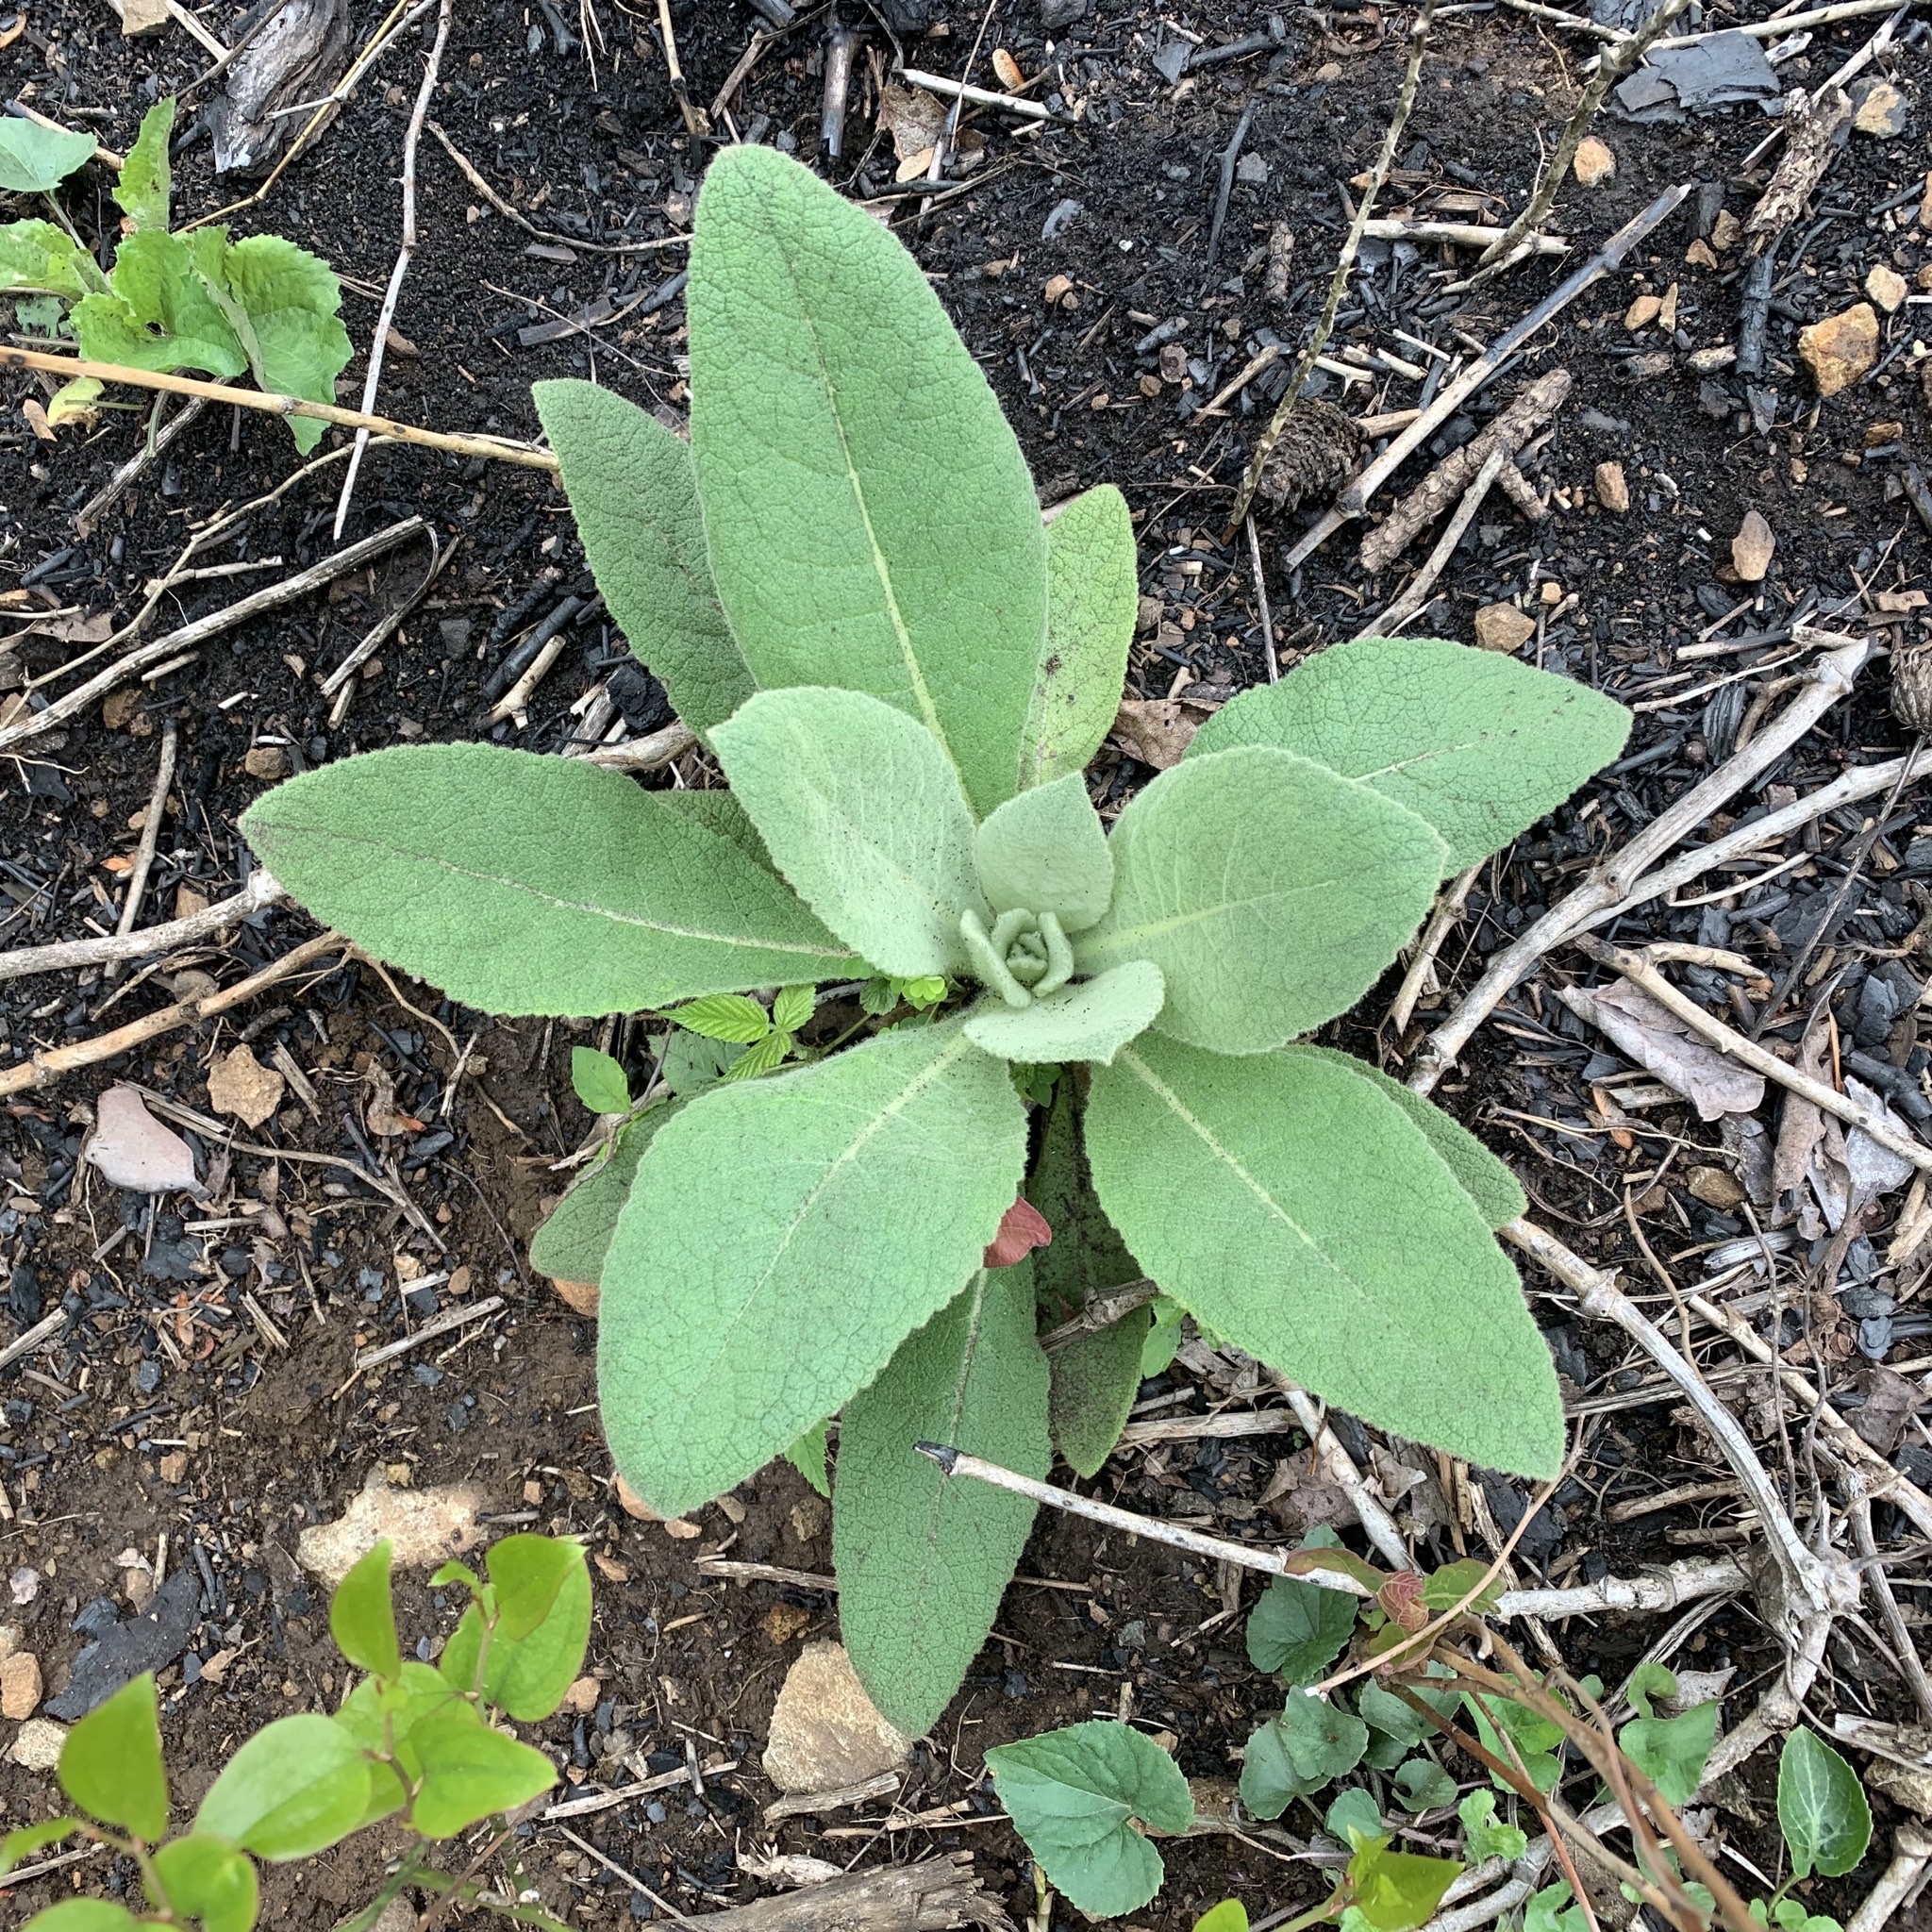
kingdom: Plantae
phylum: Tracheophyta
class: Magnoliopsida
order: Lamiales
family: Scrophulariaceae
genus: Verbascum
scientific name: Verbascum thapsus
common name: Common mullein
